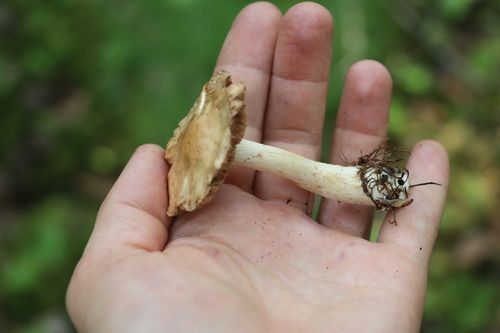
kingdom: Fungi
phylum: Basidiomycota
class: Agaricomycetes
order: Agaricales
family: Hymenogastraceae
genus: Hebeloma
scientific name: Hebeloma leucosarx
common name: Birch poisonpie
